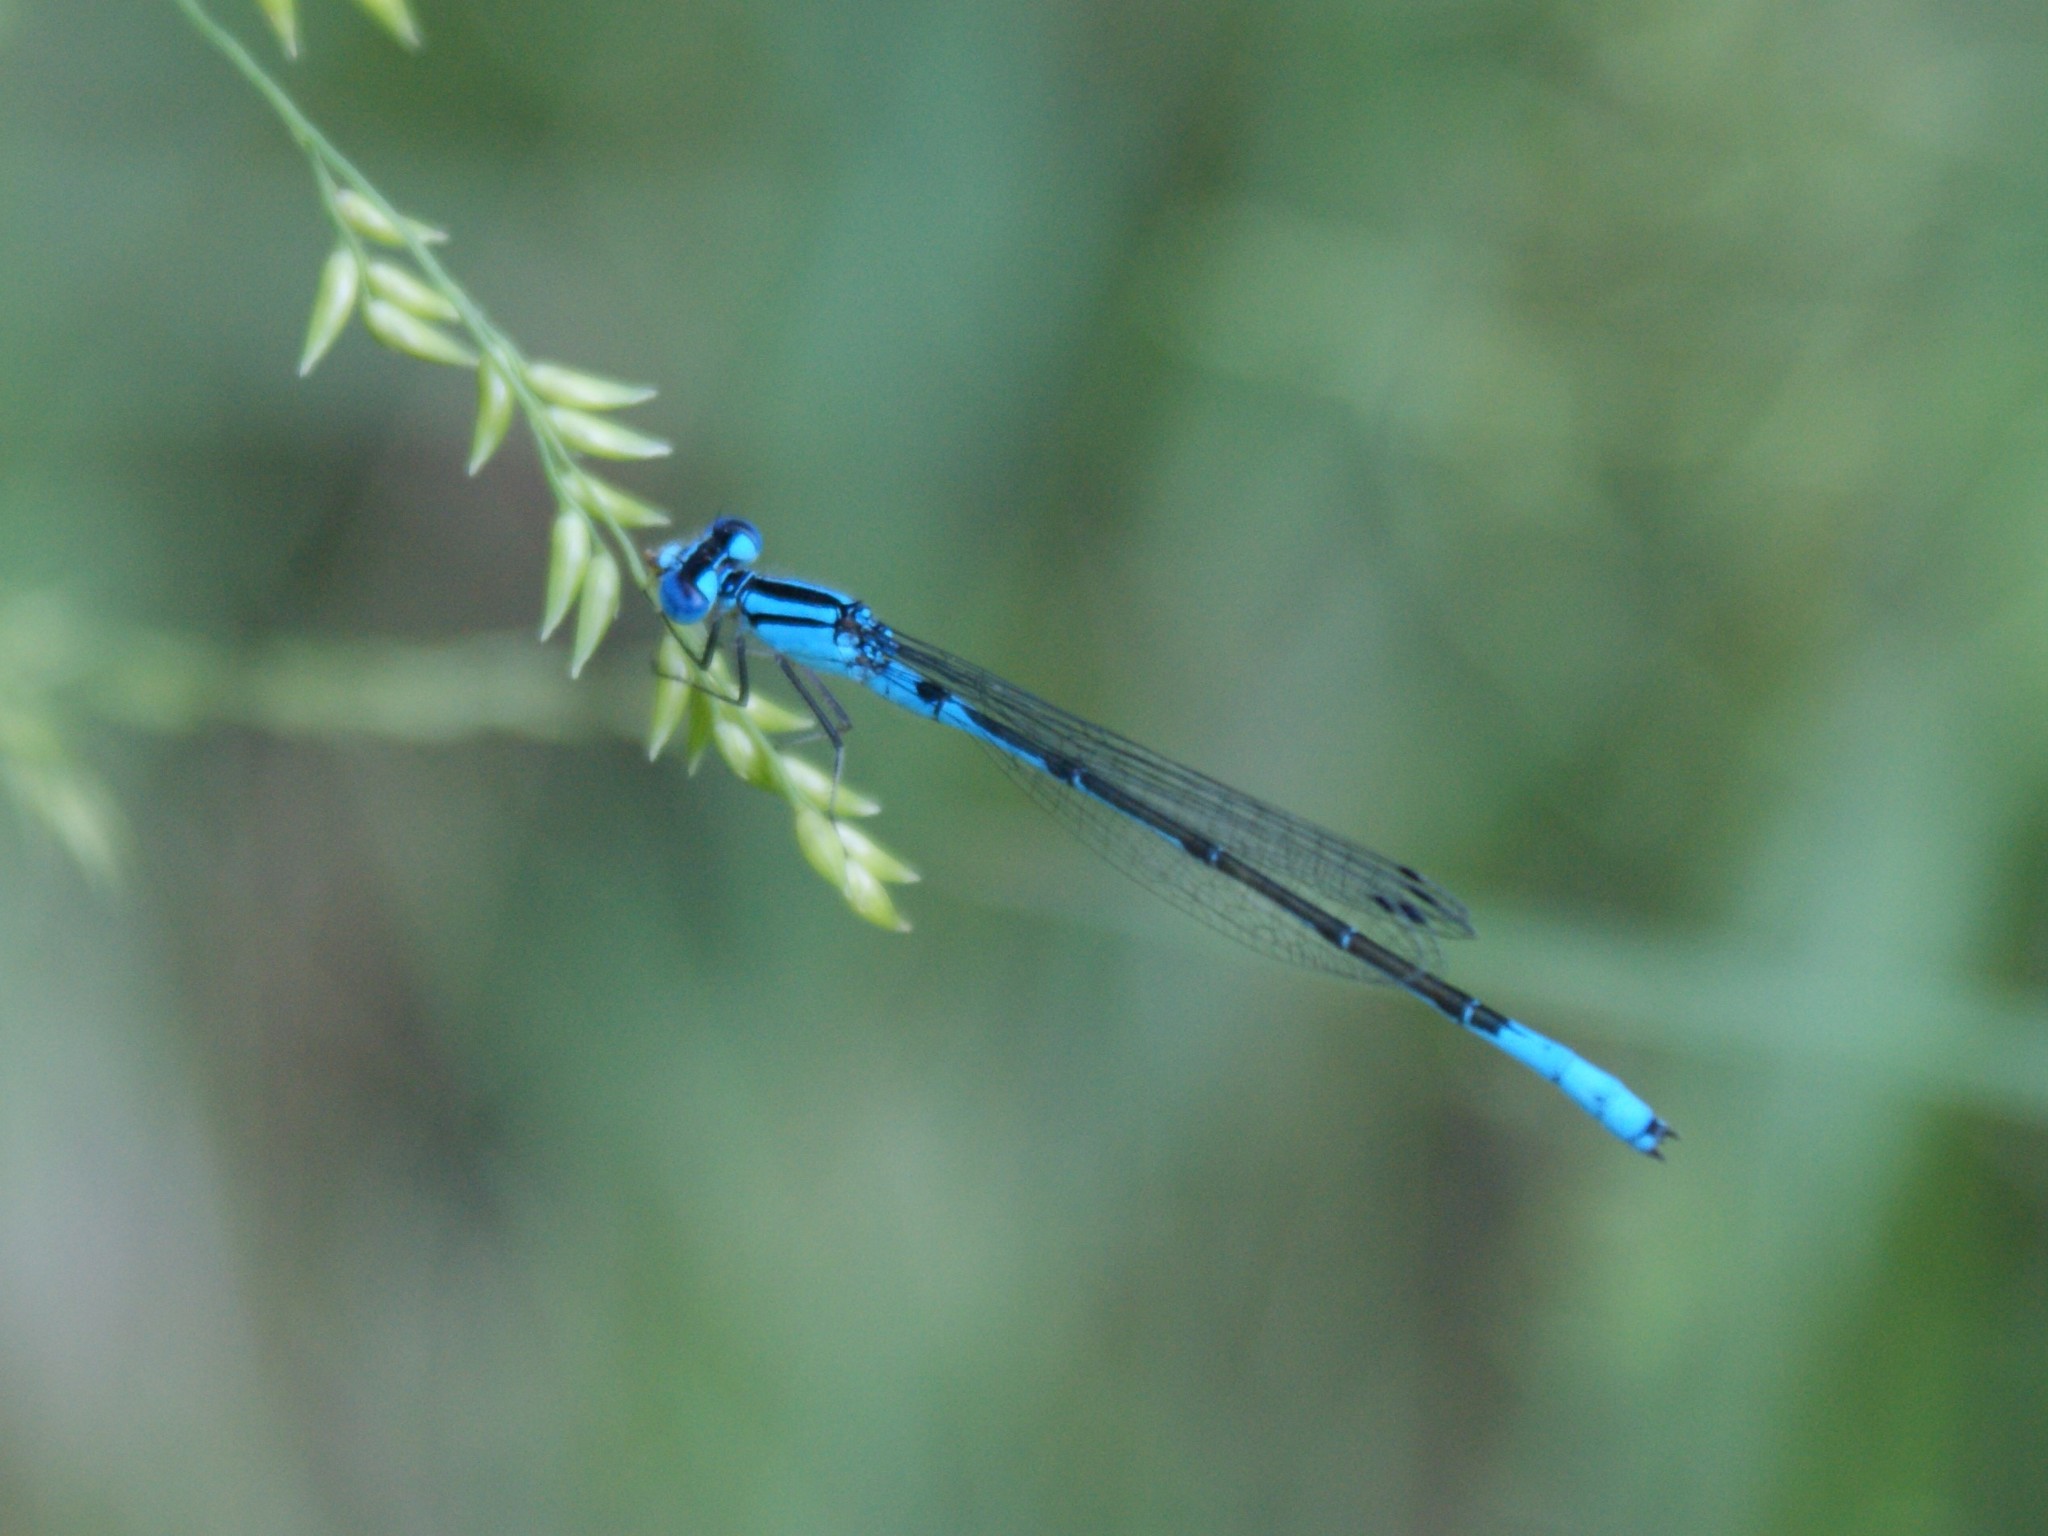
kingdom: Animalia
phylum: Arthropoda
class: Insecta
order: Odonata
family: Coenagrionidae
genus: Enallagma
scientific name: Enallagma aspersum
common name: Azure bluet
